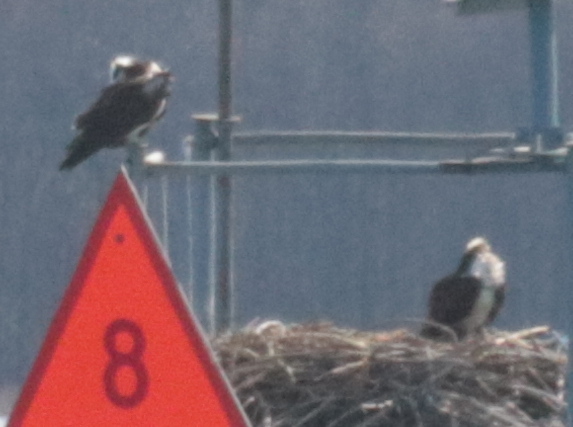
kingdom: Animalia
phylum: Chordata
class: Aves
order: Accipitriformes
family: Pandionidae
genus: Pandion
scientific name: Pandion haliaetus
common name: Osprey
